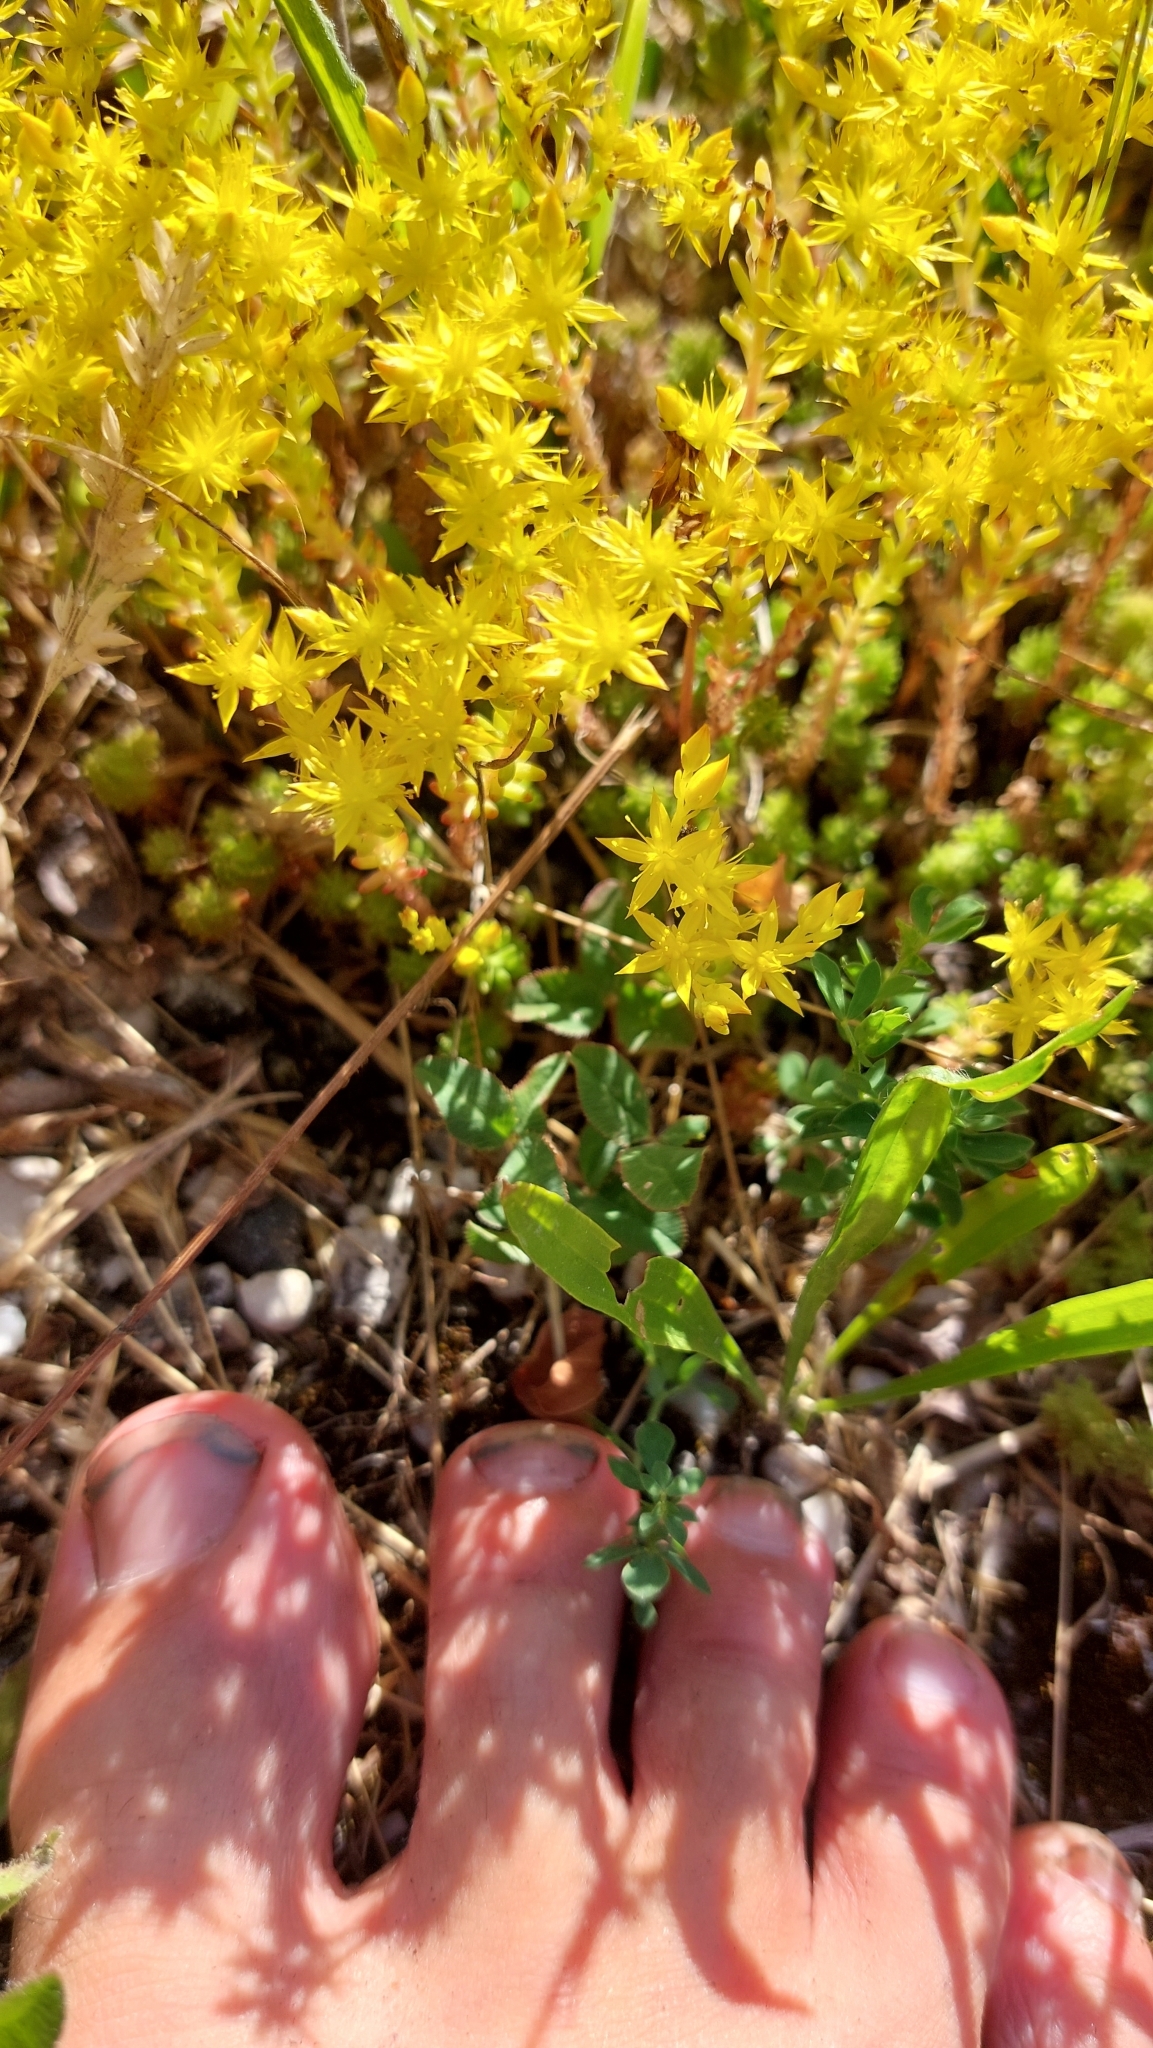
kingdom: Plantae
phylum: Tracheophyta
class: Magnoliopsida
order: Saxifragales
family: Crassulaceae
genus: Sedum
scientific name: Sedum sexangulare
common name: Tasteless stonecrop
